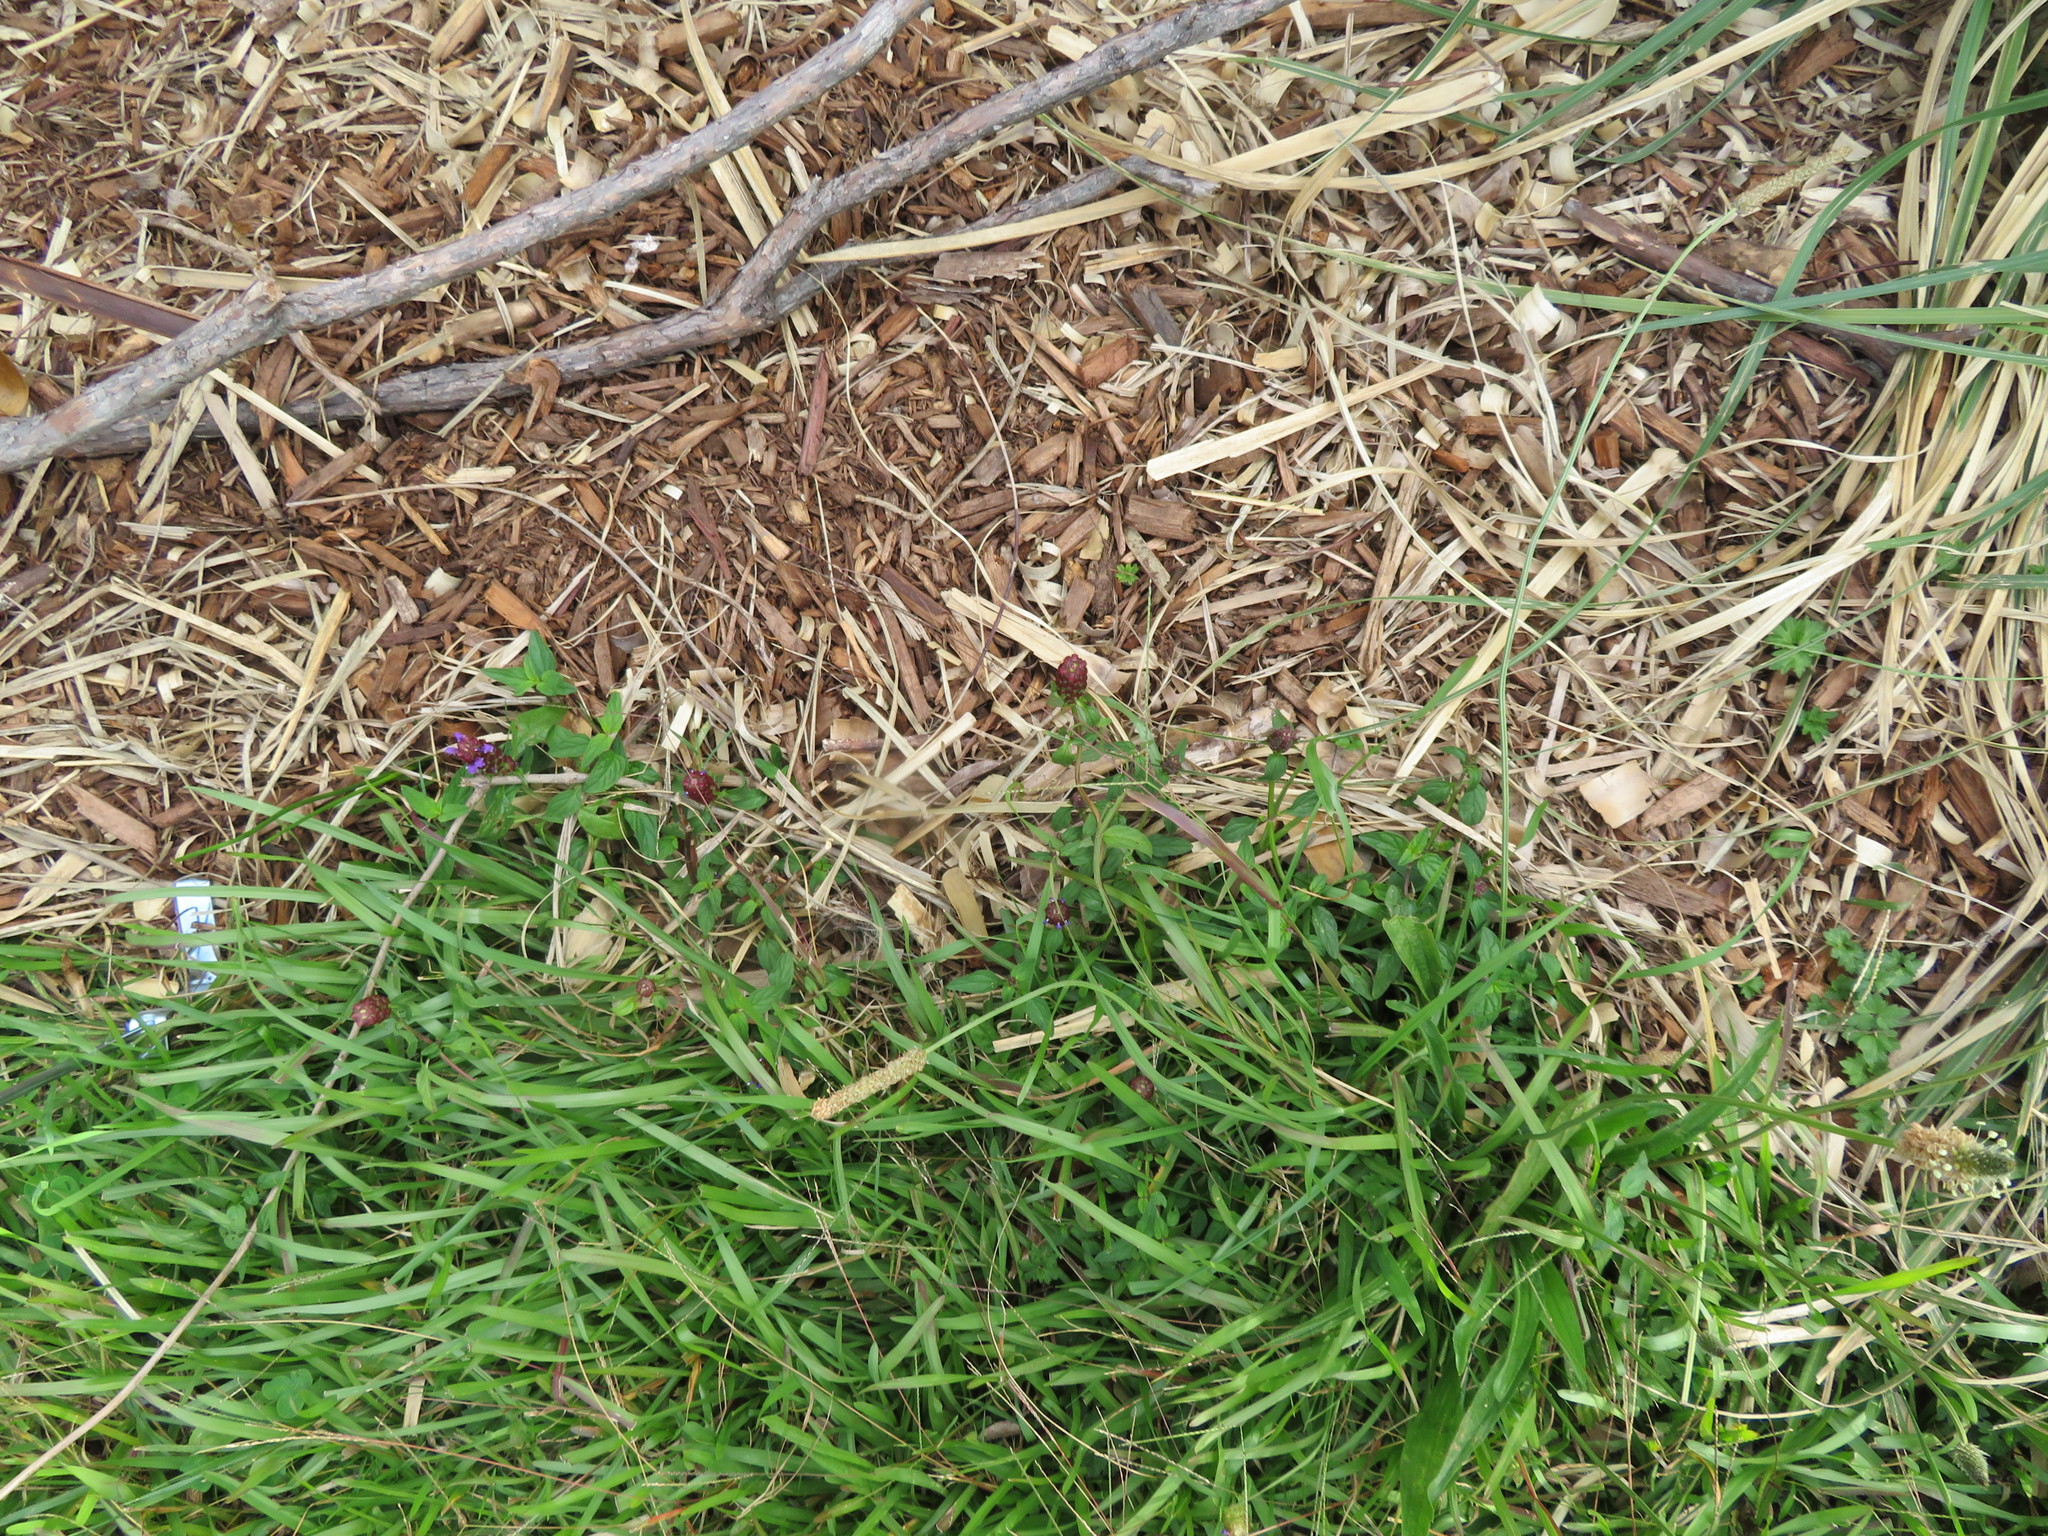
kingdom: Plantae
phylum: Tracheophyta
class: Magnoliopsida
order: Lamiales
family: Lamiaceae
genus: Prunella
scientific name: Prunella vulgaris
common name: Heal-all
